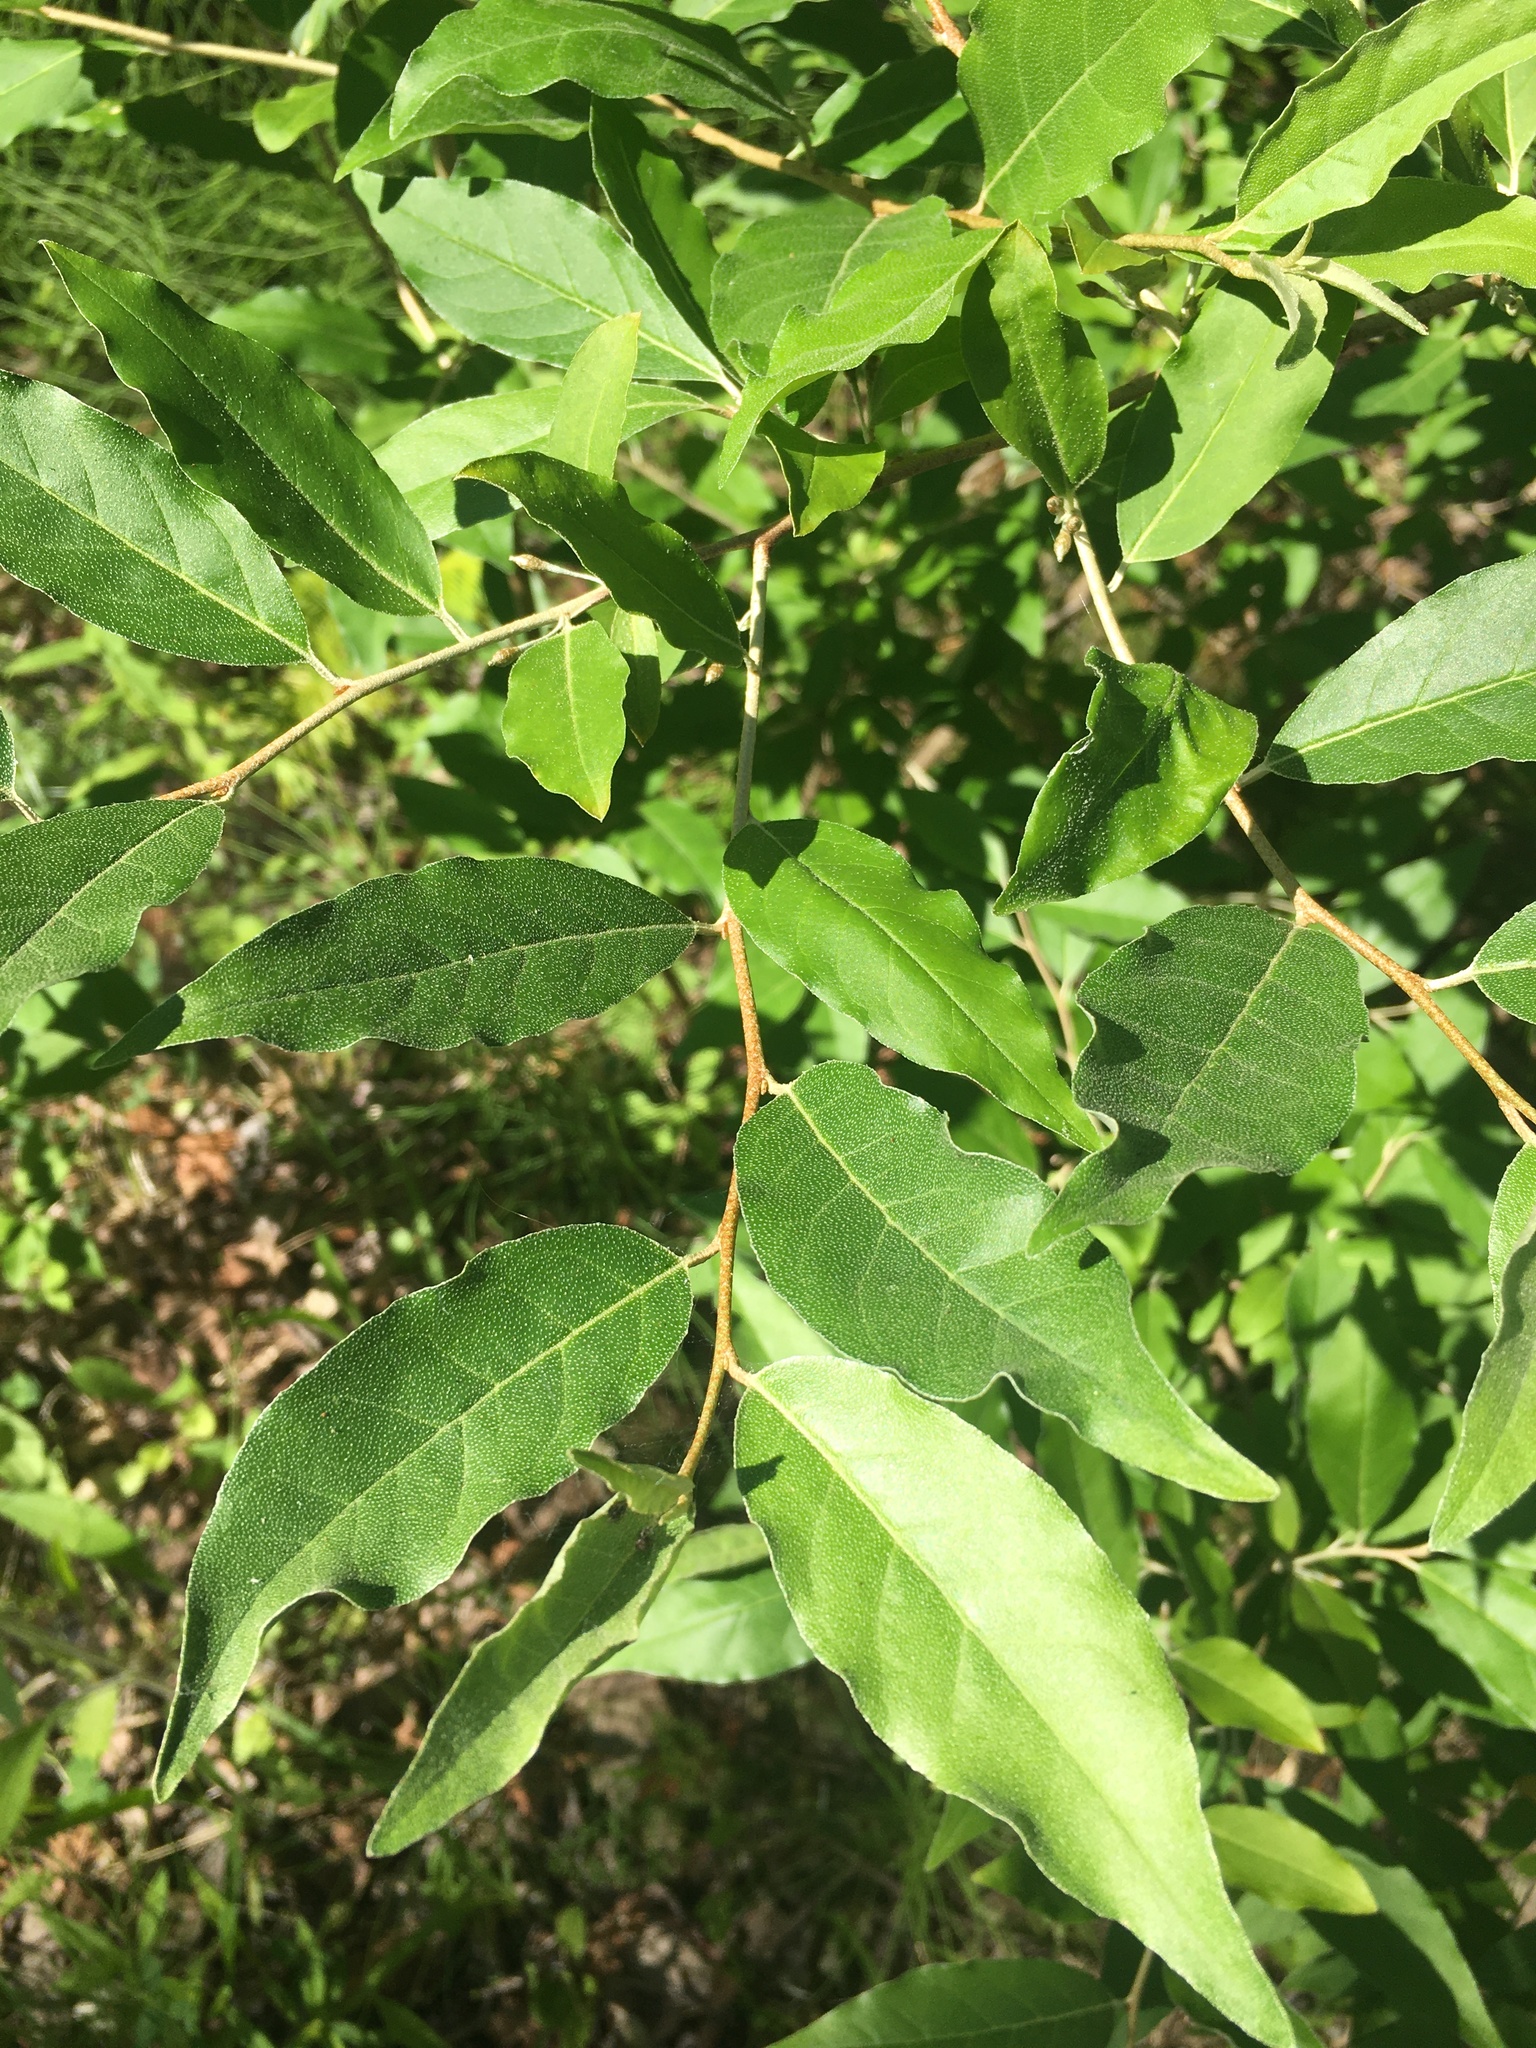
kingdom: Plantae
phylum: Tracheophyta
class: Magnoliopsida
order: Rosales
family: Elaeagnaceae
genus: Elaeagnus
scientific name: Elaeagnus umbellata
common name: Autumn olive
